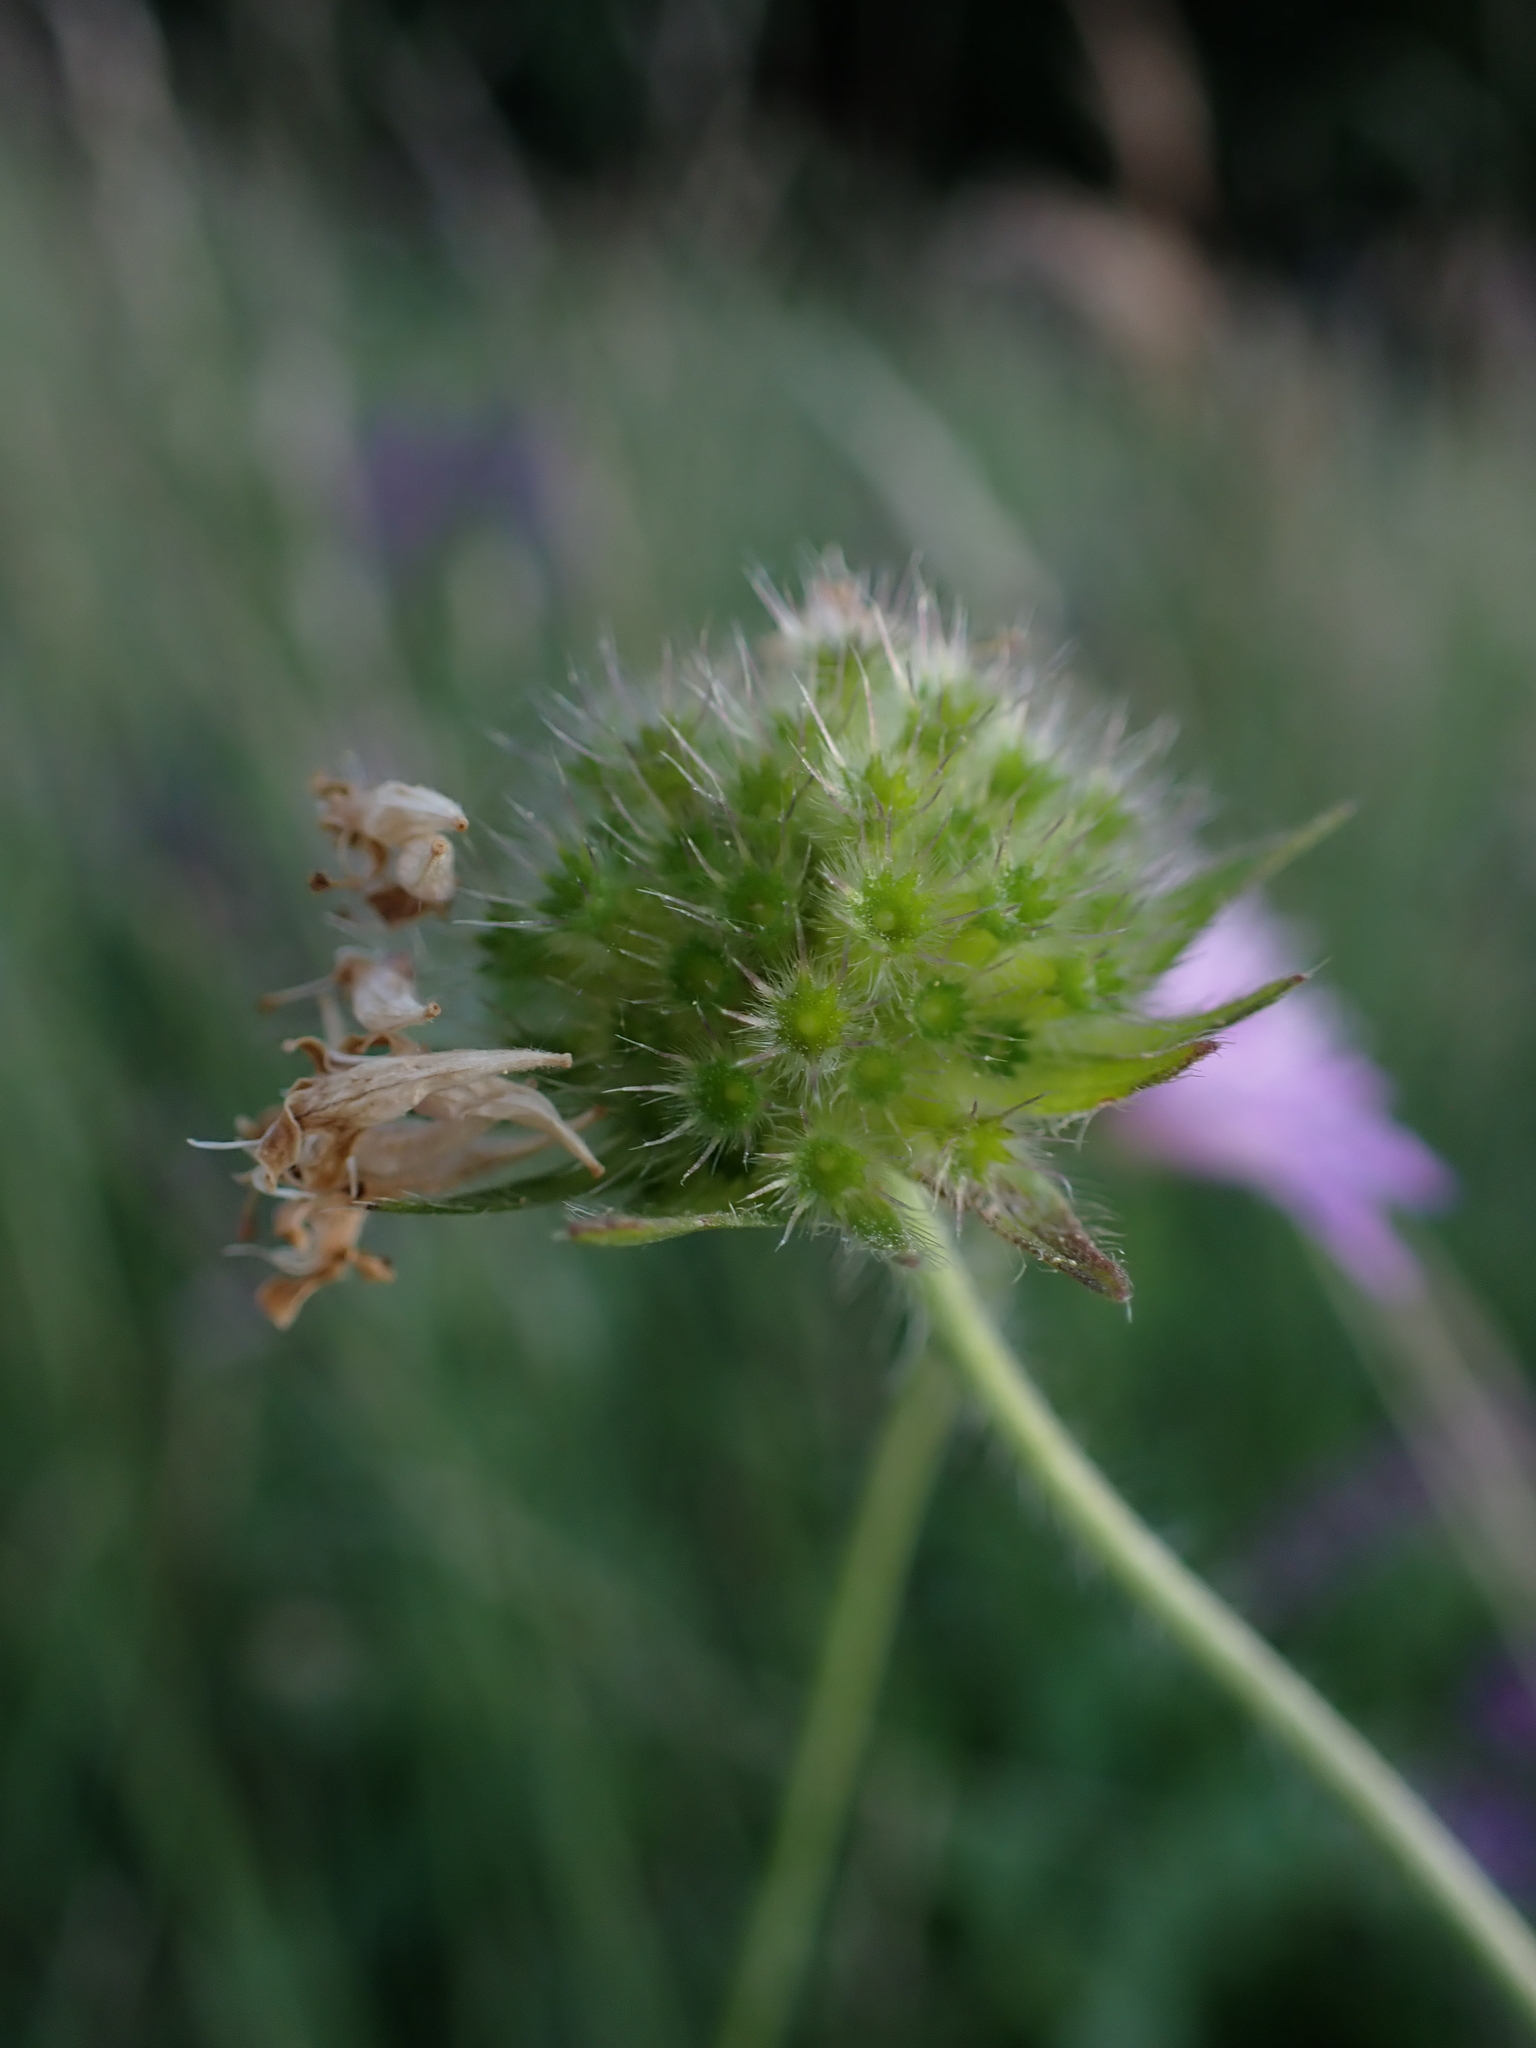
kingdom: Plantae
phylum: Tracheophyta
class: Magnoliopsida
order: Dipsacales
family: Caprifoliaceae
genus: Knautia
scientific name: Knautia arvensis
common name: Field scabiosa
